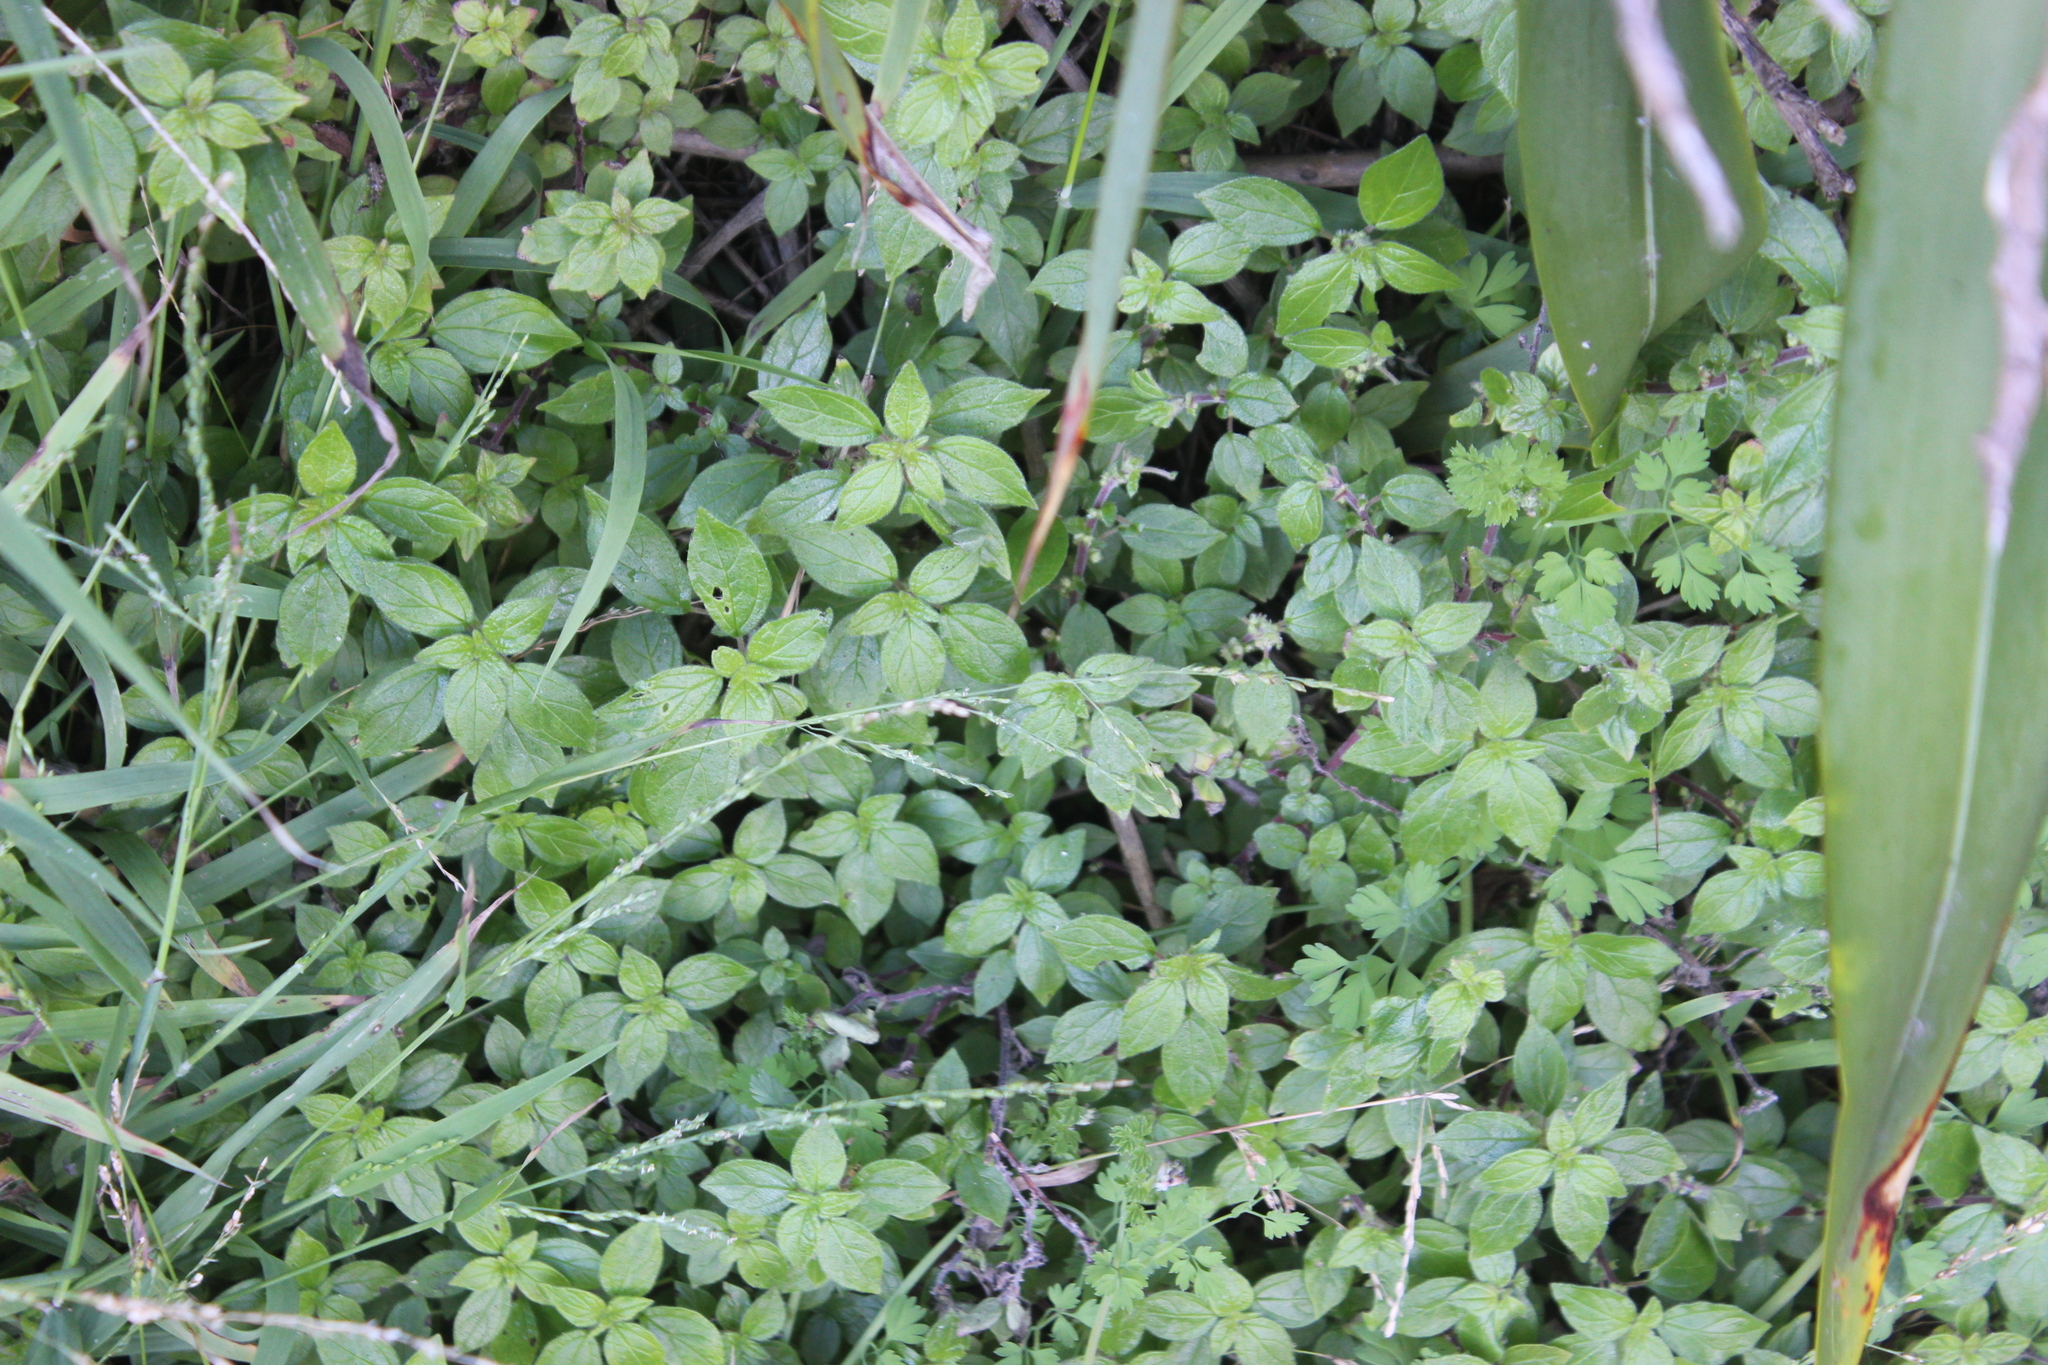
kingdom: Plantae
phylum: Tracheophyta
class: Magnoliopsida
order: Rosales
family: Urticaceae
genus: Parietaria
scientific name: Parietaria judaica
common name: Pellitory-of-the-wall
